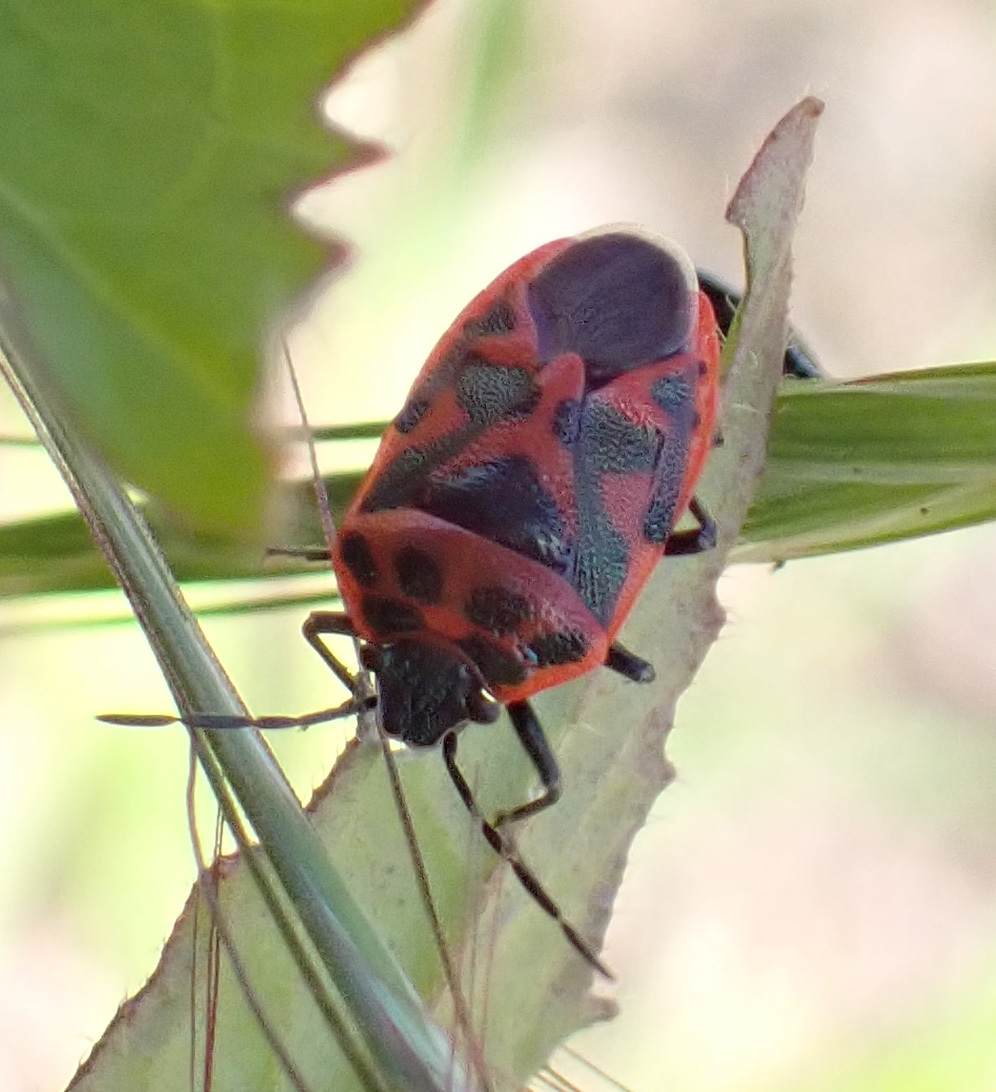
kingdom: Animalia
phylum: Arthropoda
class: Insecta
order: Hemiptera
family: Pentatomidae
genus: Eurydema
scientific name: Eurydema ornata
